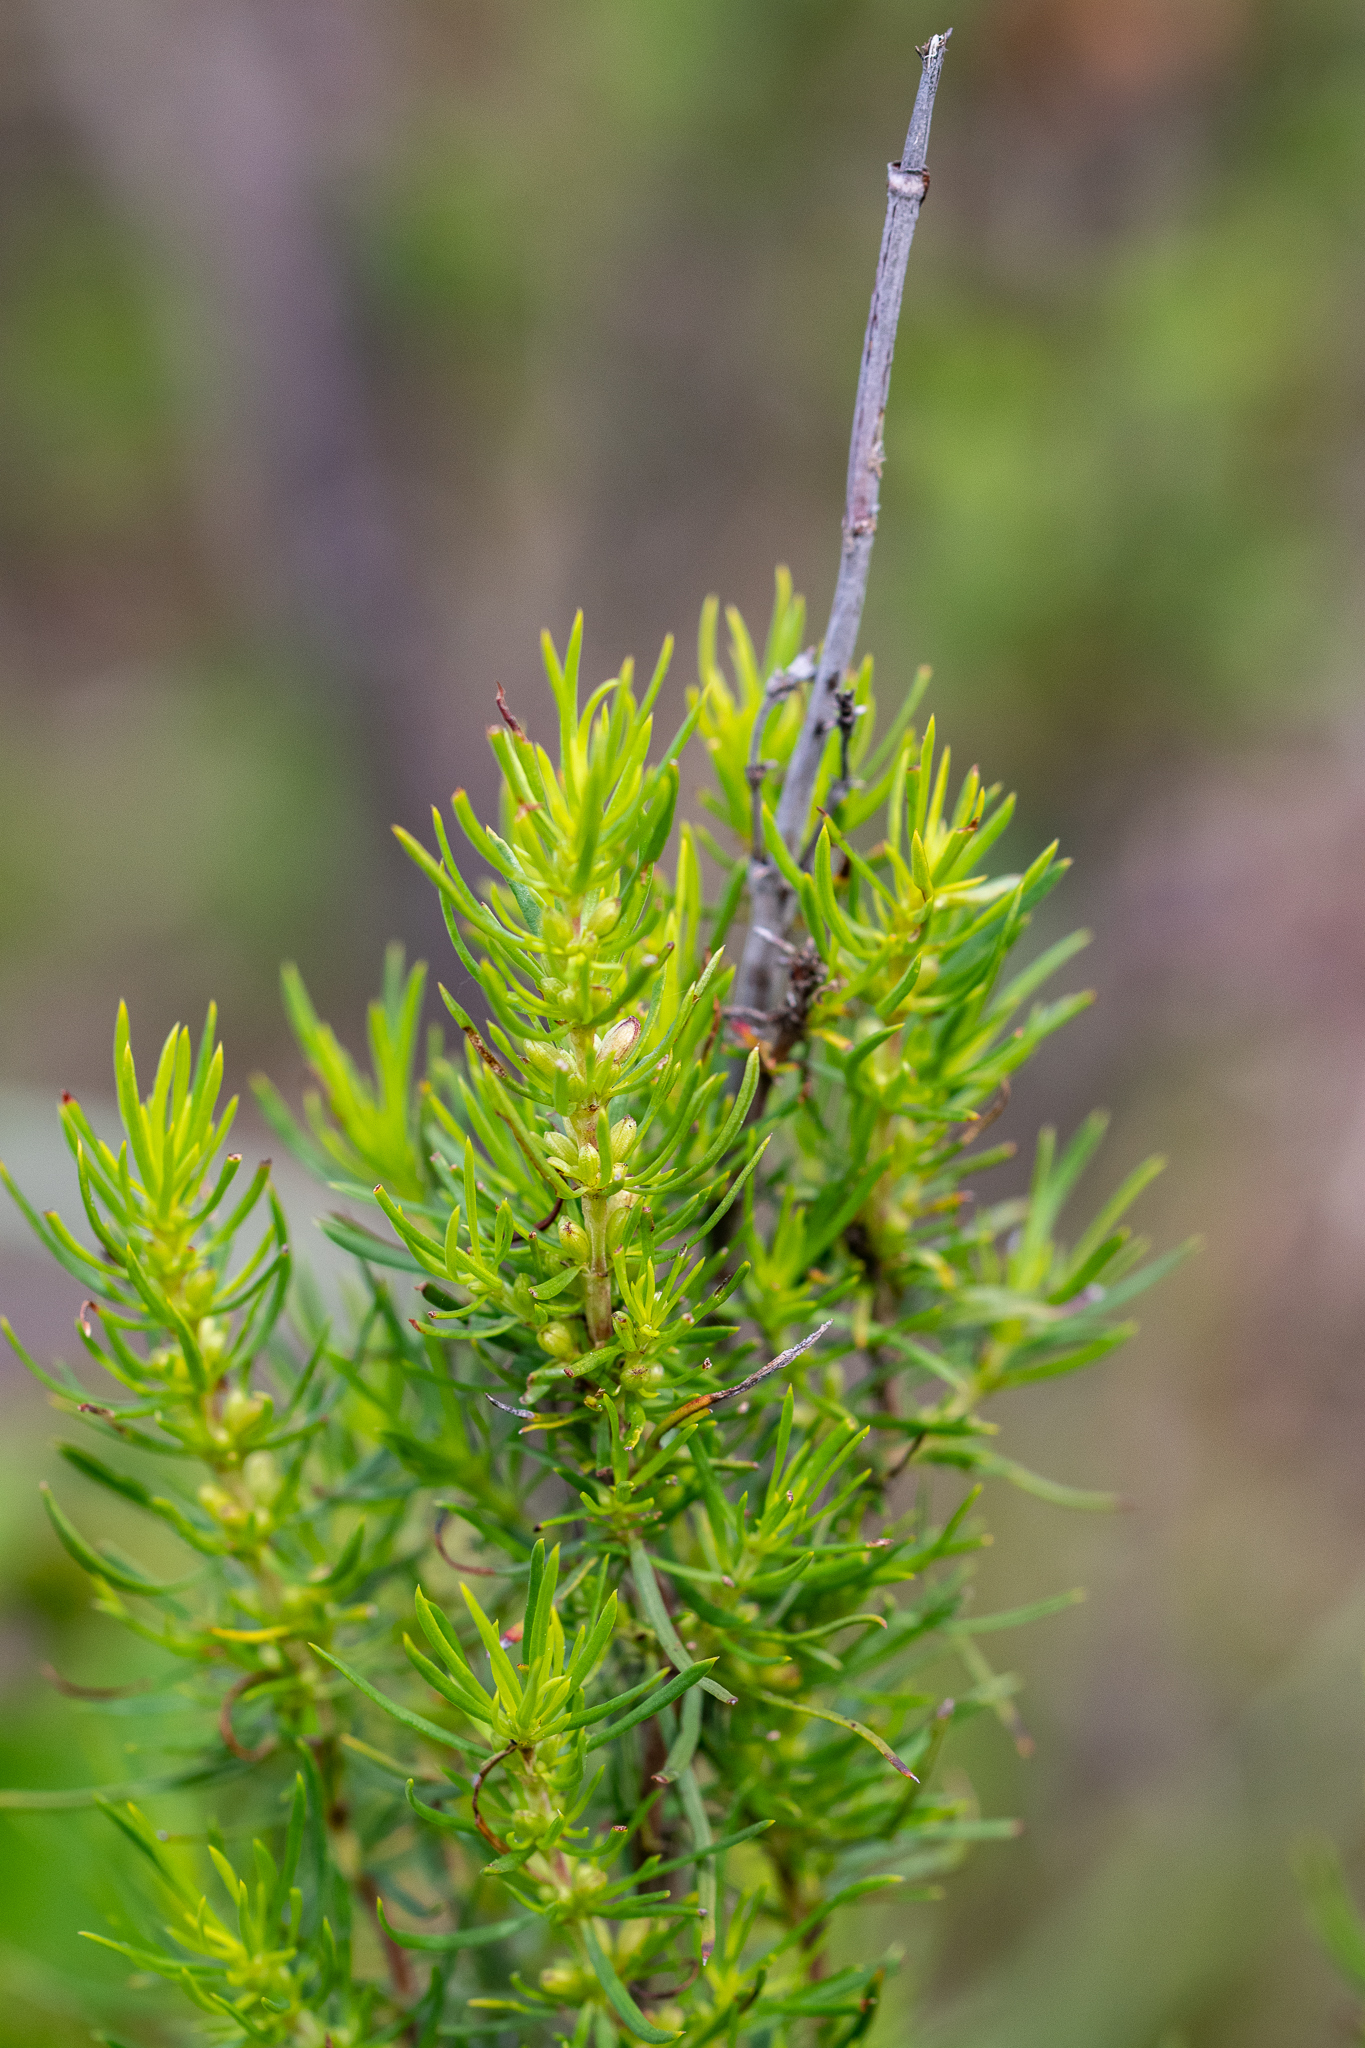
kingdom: Plantae
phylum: Tracheophyta
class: Magnoliopsida
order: Gentianales
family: Rubiaceae
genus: Anthospermum
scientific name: Anthospermum aethiopicum
